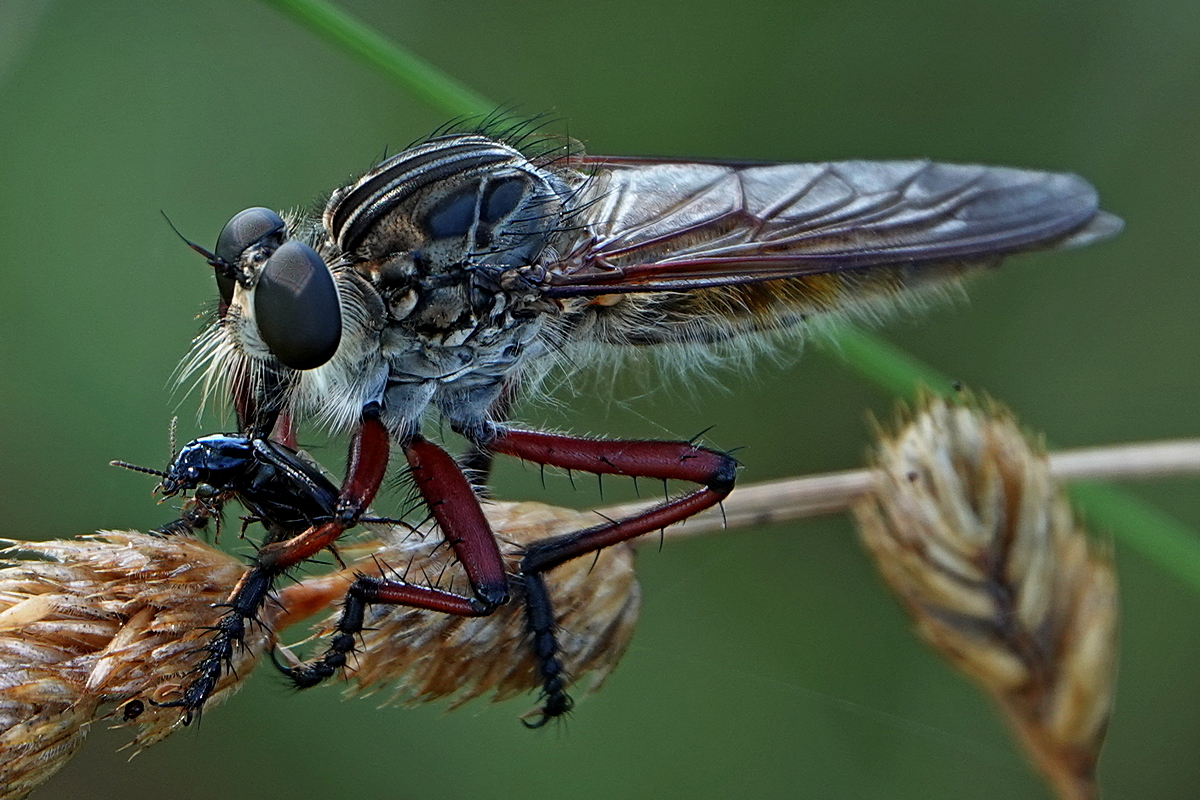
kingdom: Animalia
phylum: Arthropoda
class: Insecta
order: Diptera
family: Asilidae
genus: Colepia
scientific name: Colepia malleola
